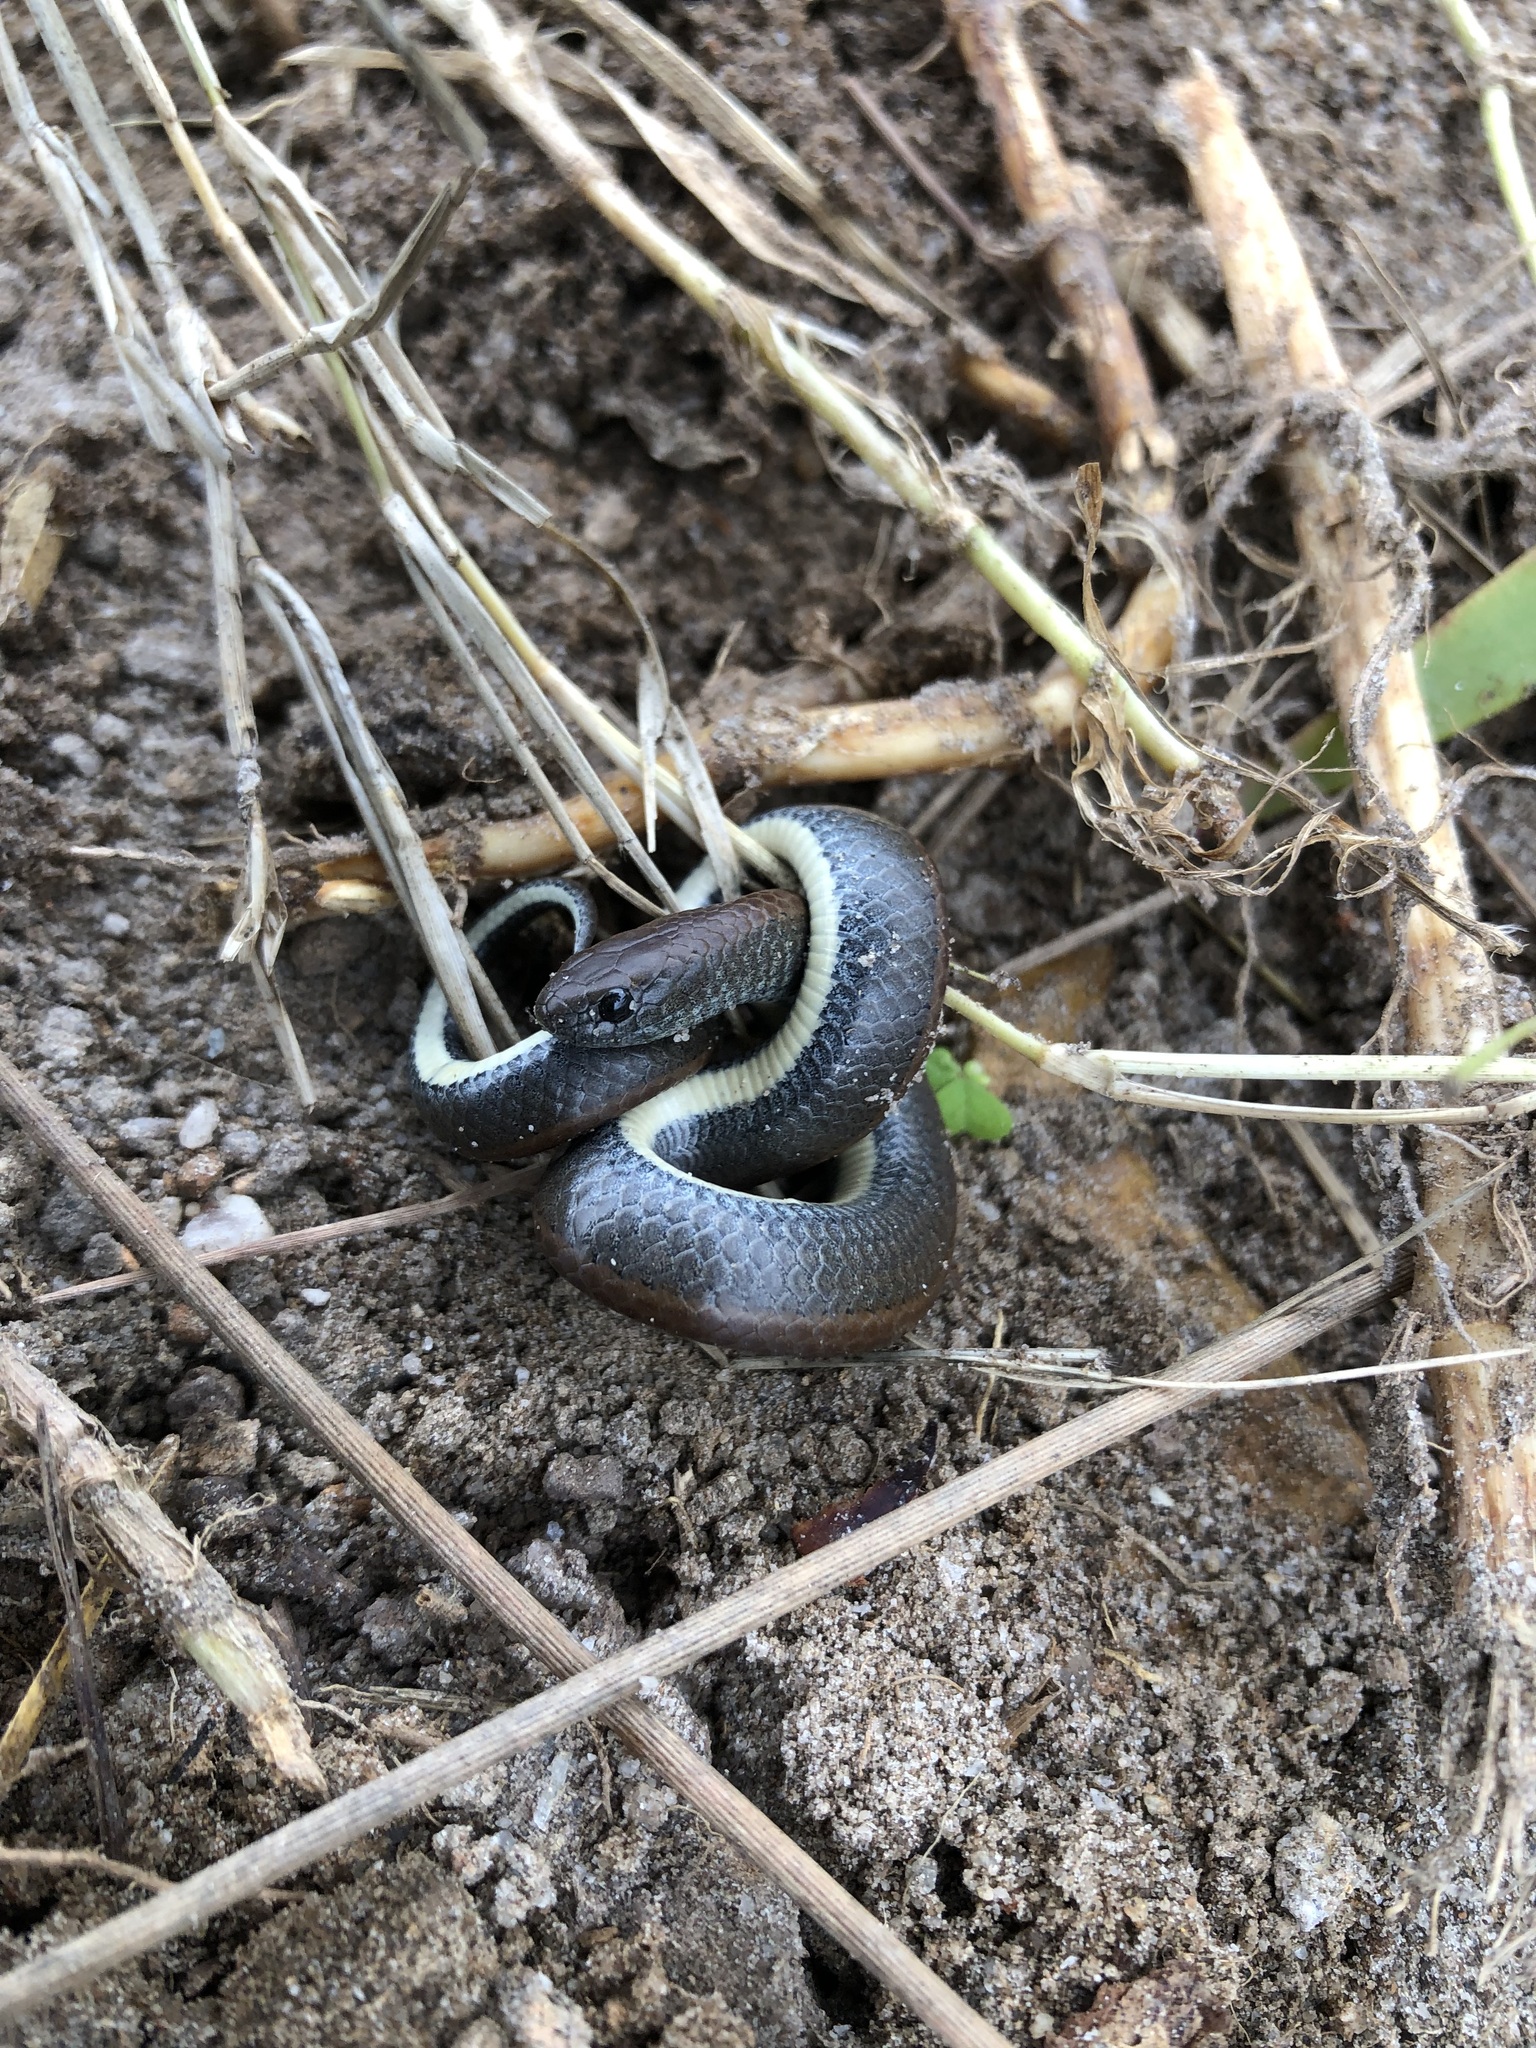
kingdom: Animalia
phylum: Chordata
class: Squamata
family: Pseudoxyrhophiidae
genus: Duberria
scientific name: Duberria lutrix
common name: Common slug eater
